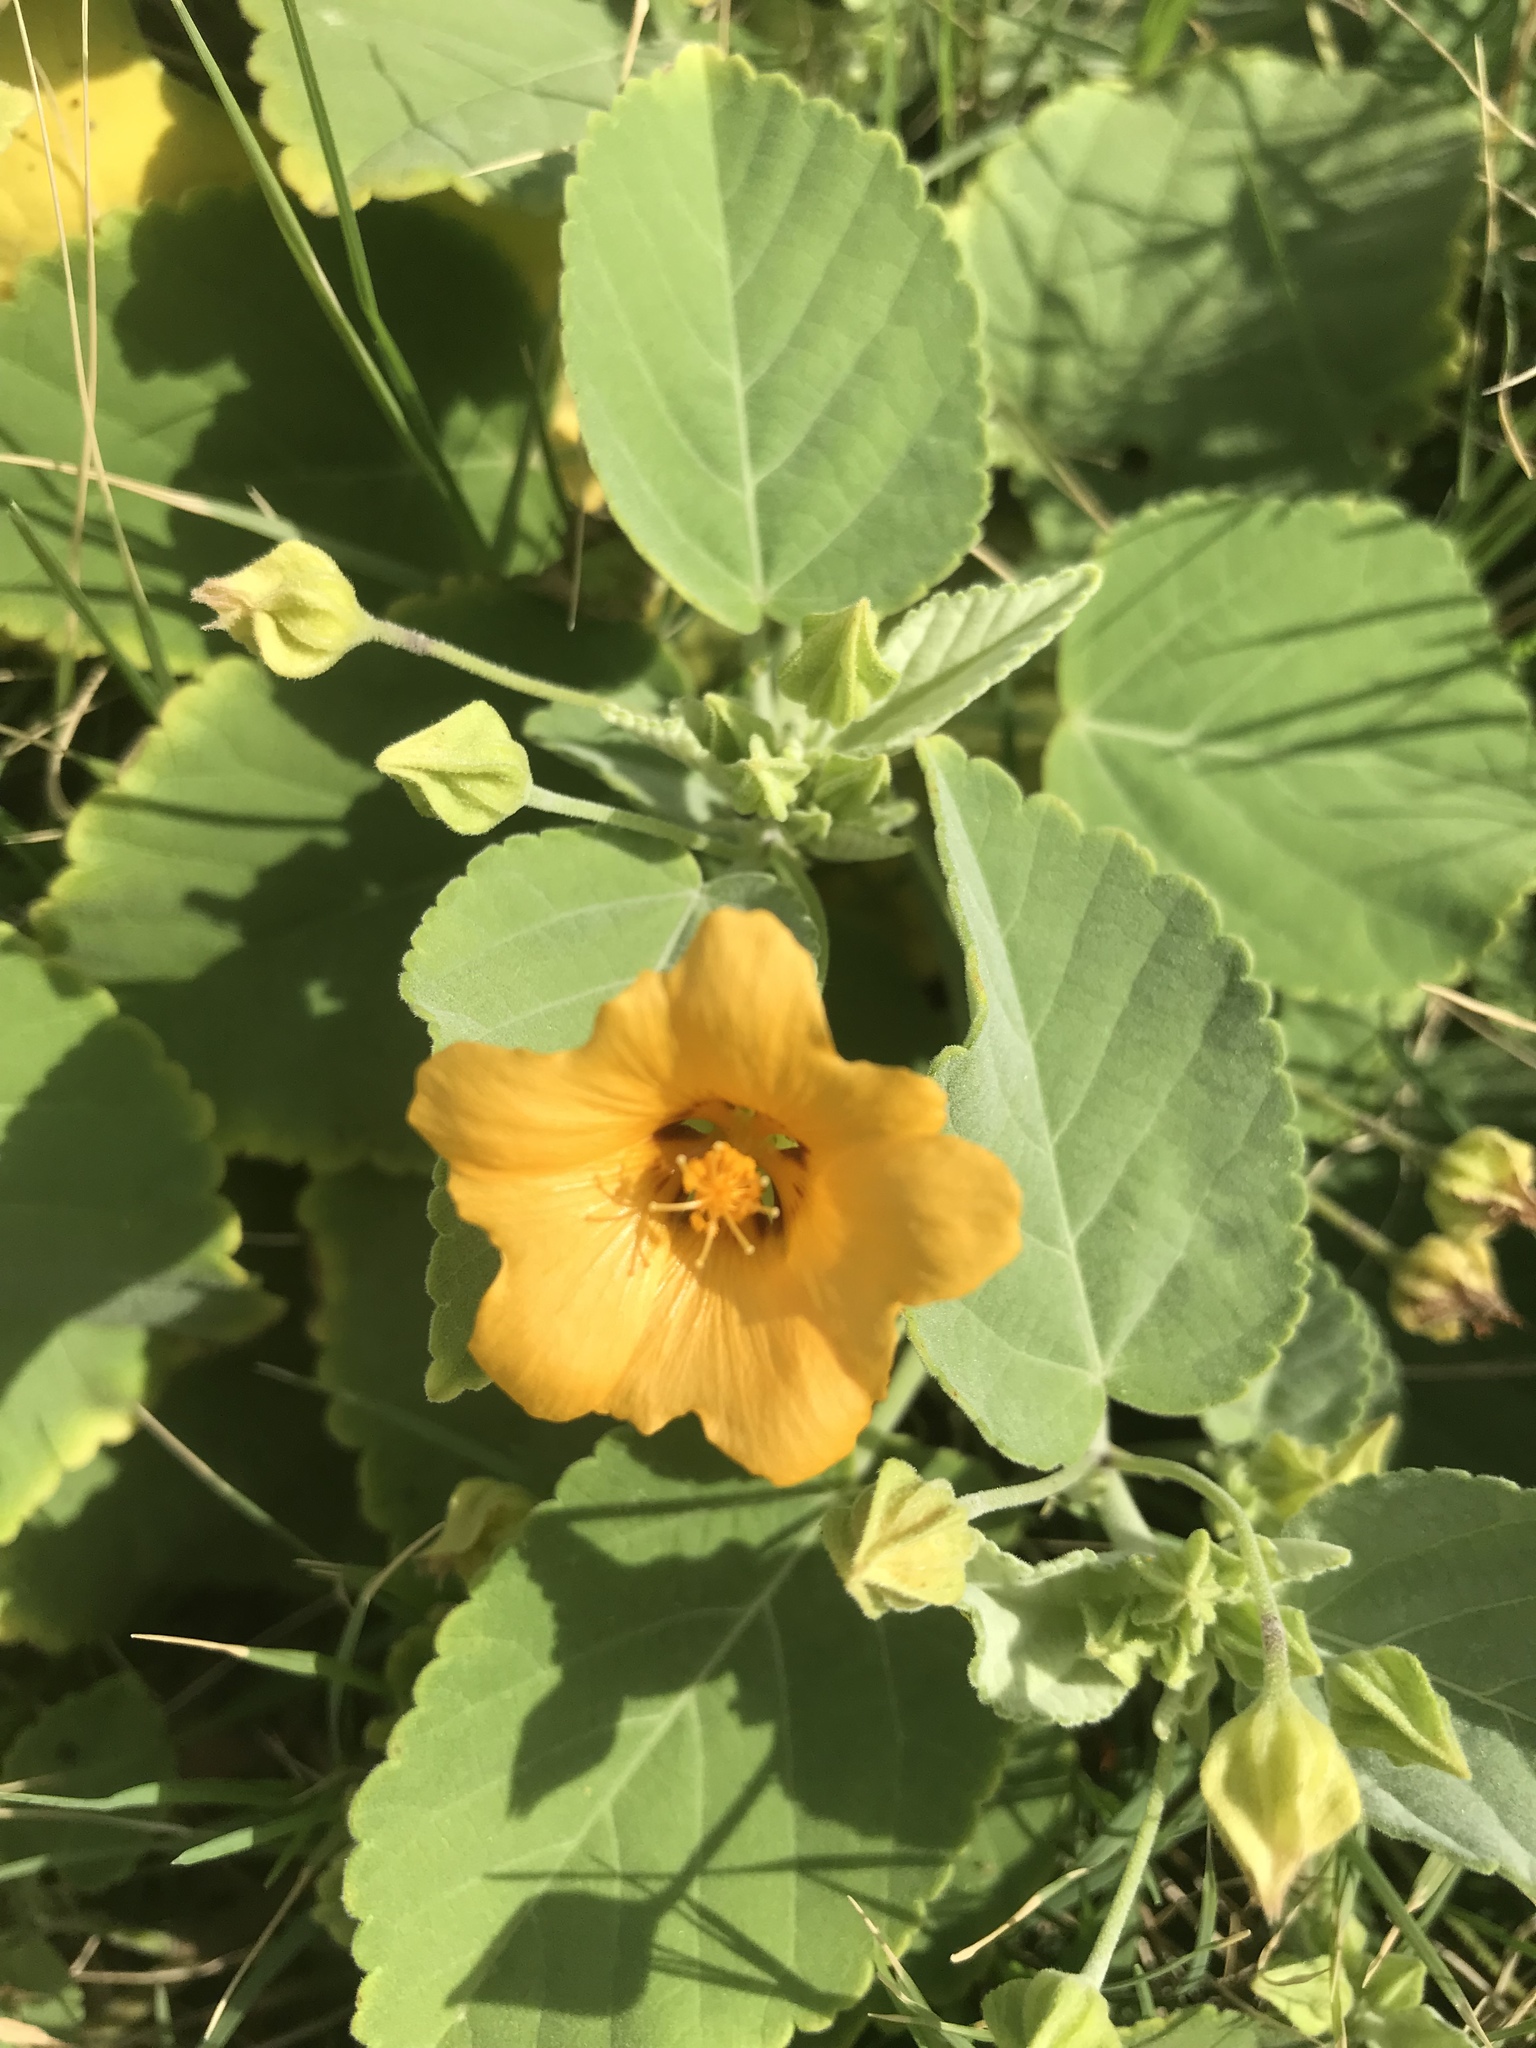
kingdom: Plantae
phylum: Tracheophyta
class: Magnoliopsida
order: Malvales
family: Malvaceae
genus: Sida
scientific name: Sida fallax
